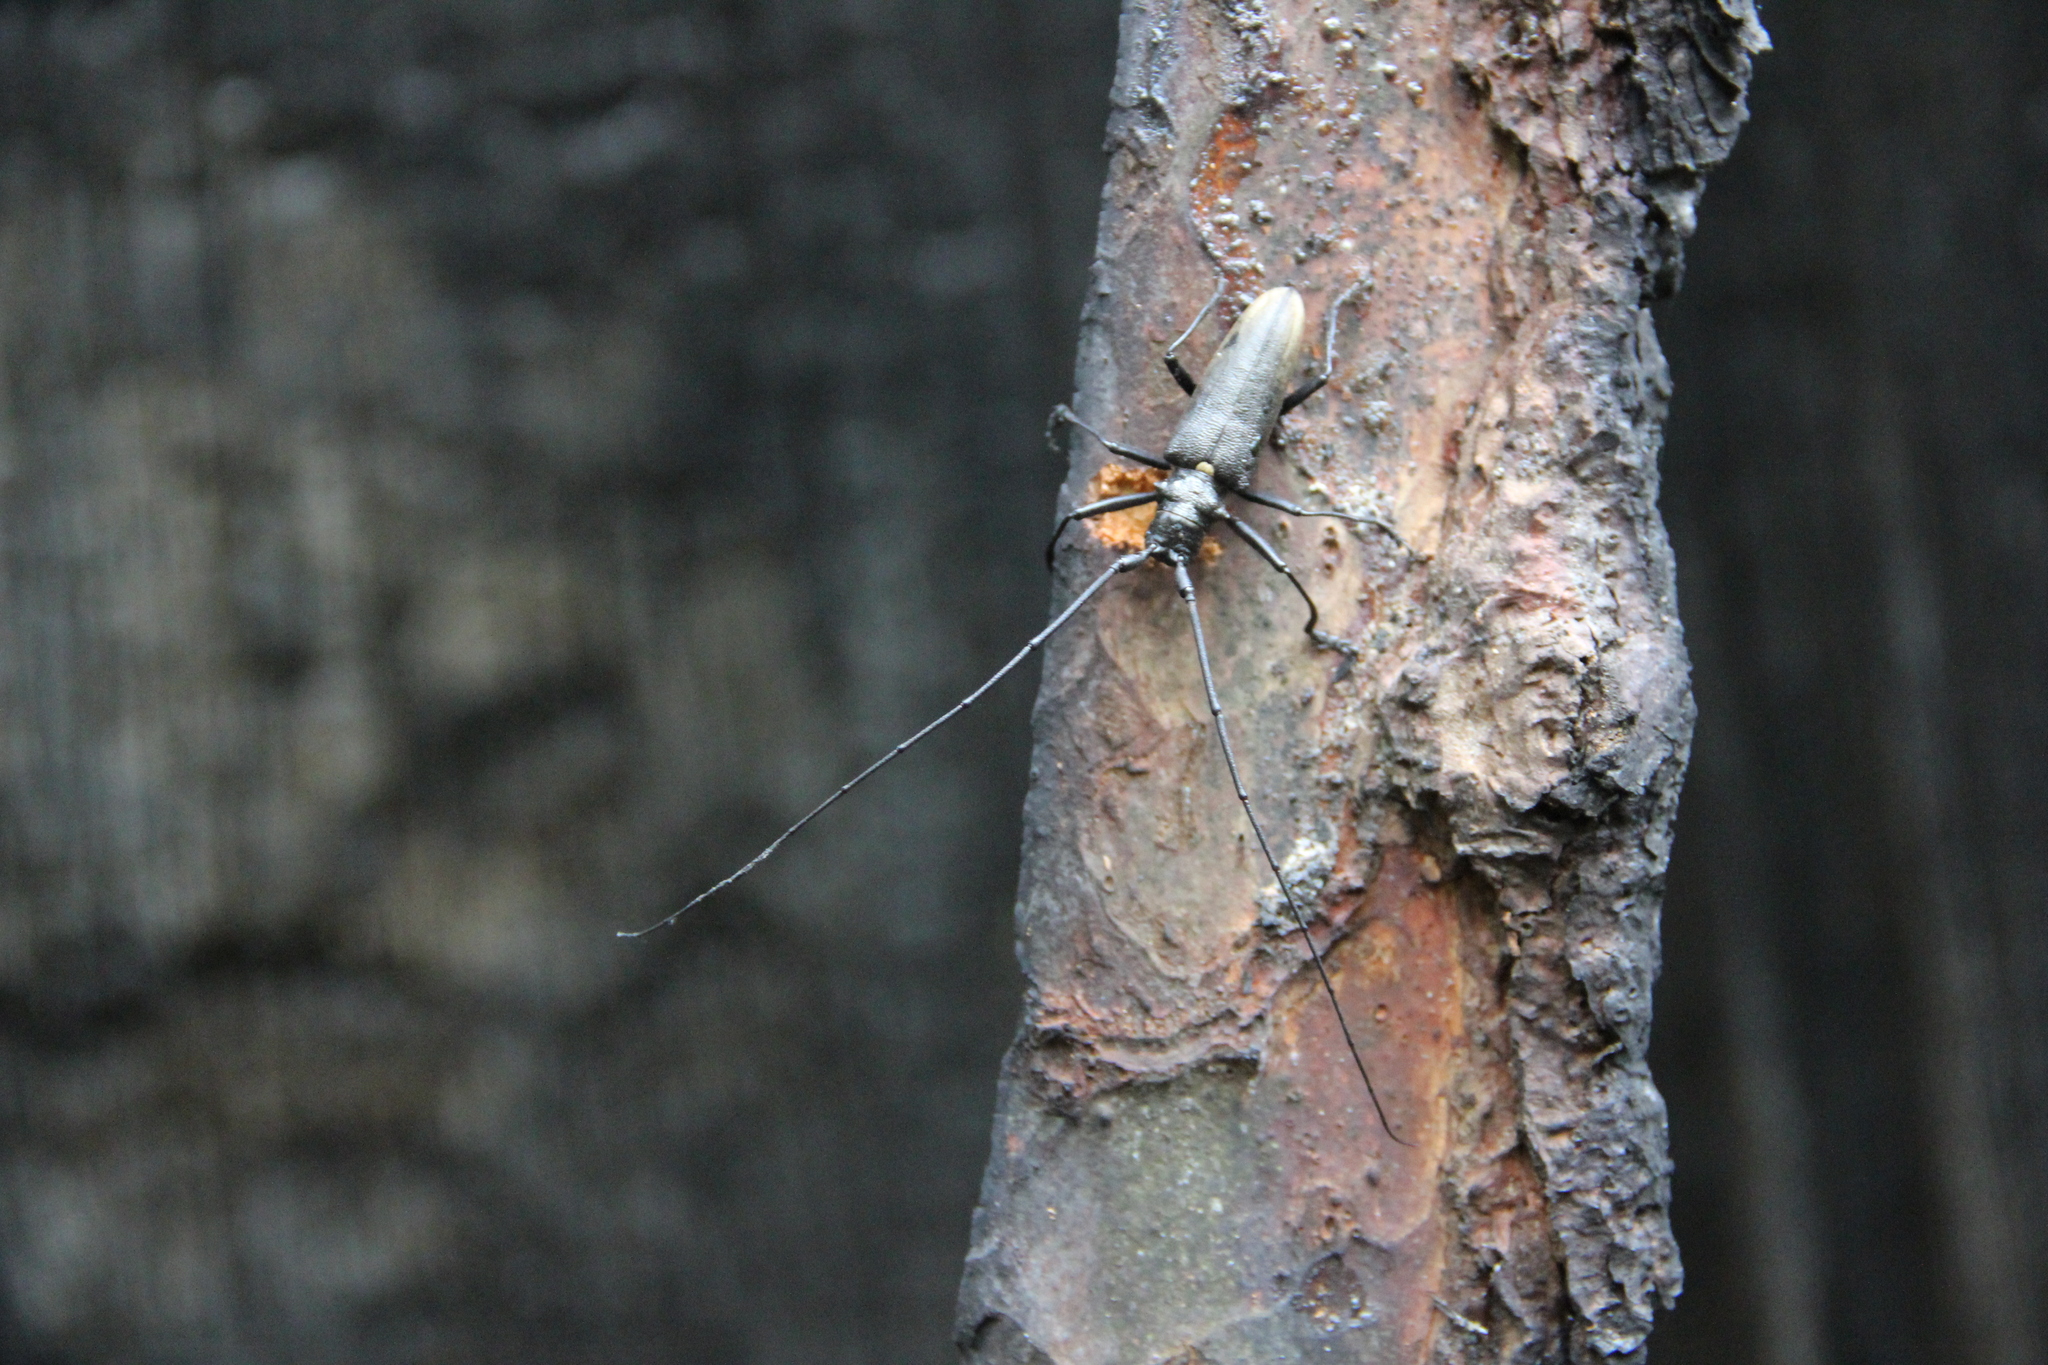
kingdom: Animalia
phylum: Arthropoda
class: Insecta
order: Coleoptera
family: Cerambycidae
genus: Monochamus
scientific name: Monochamus sartor
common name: Pine sawyer
